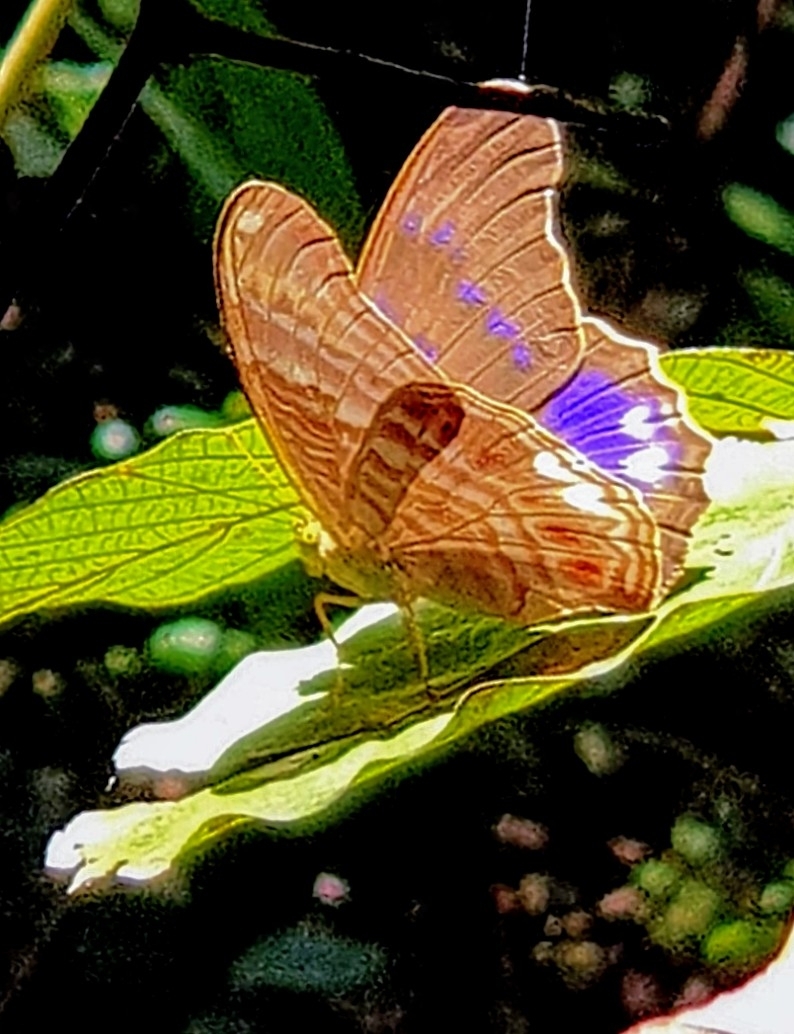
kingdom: Animalia
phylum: Arthropoda
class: Insecta
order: Lepidoptera
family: Nymphalidae
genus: Terinos
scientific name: Terinos terpander
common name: Royal assyrian
